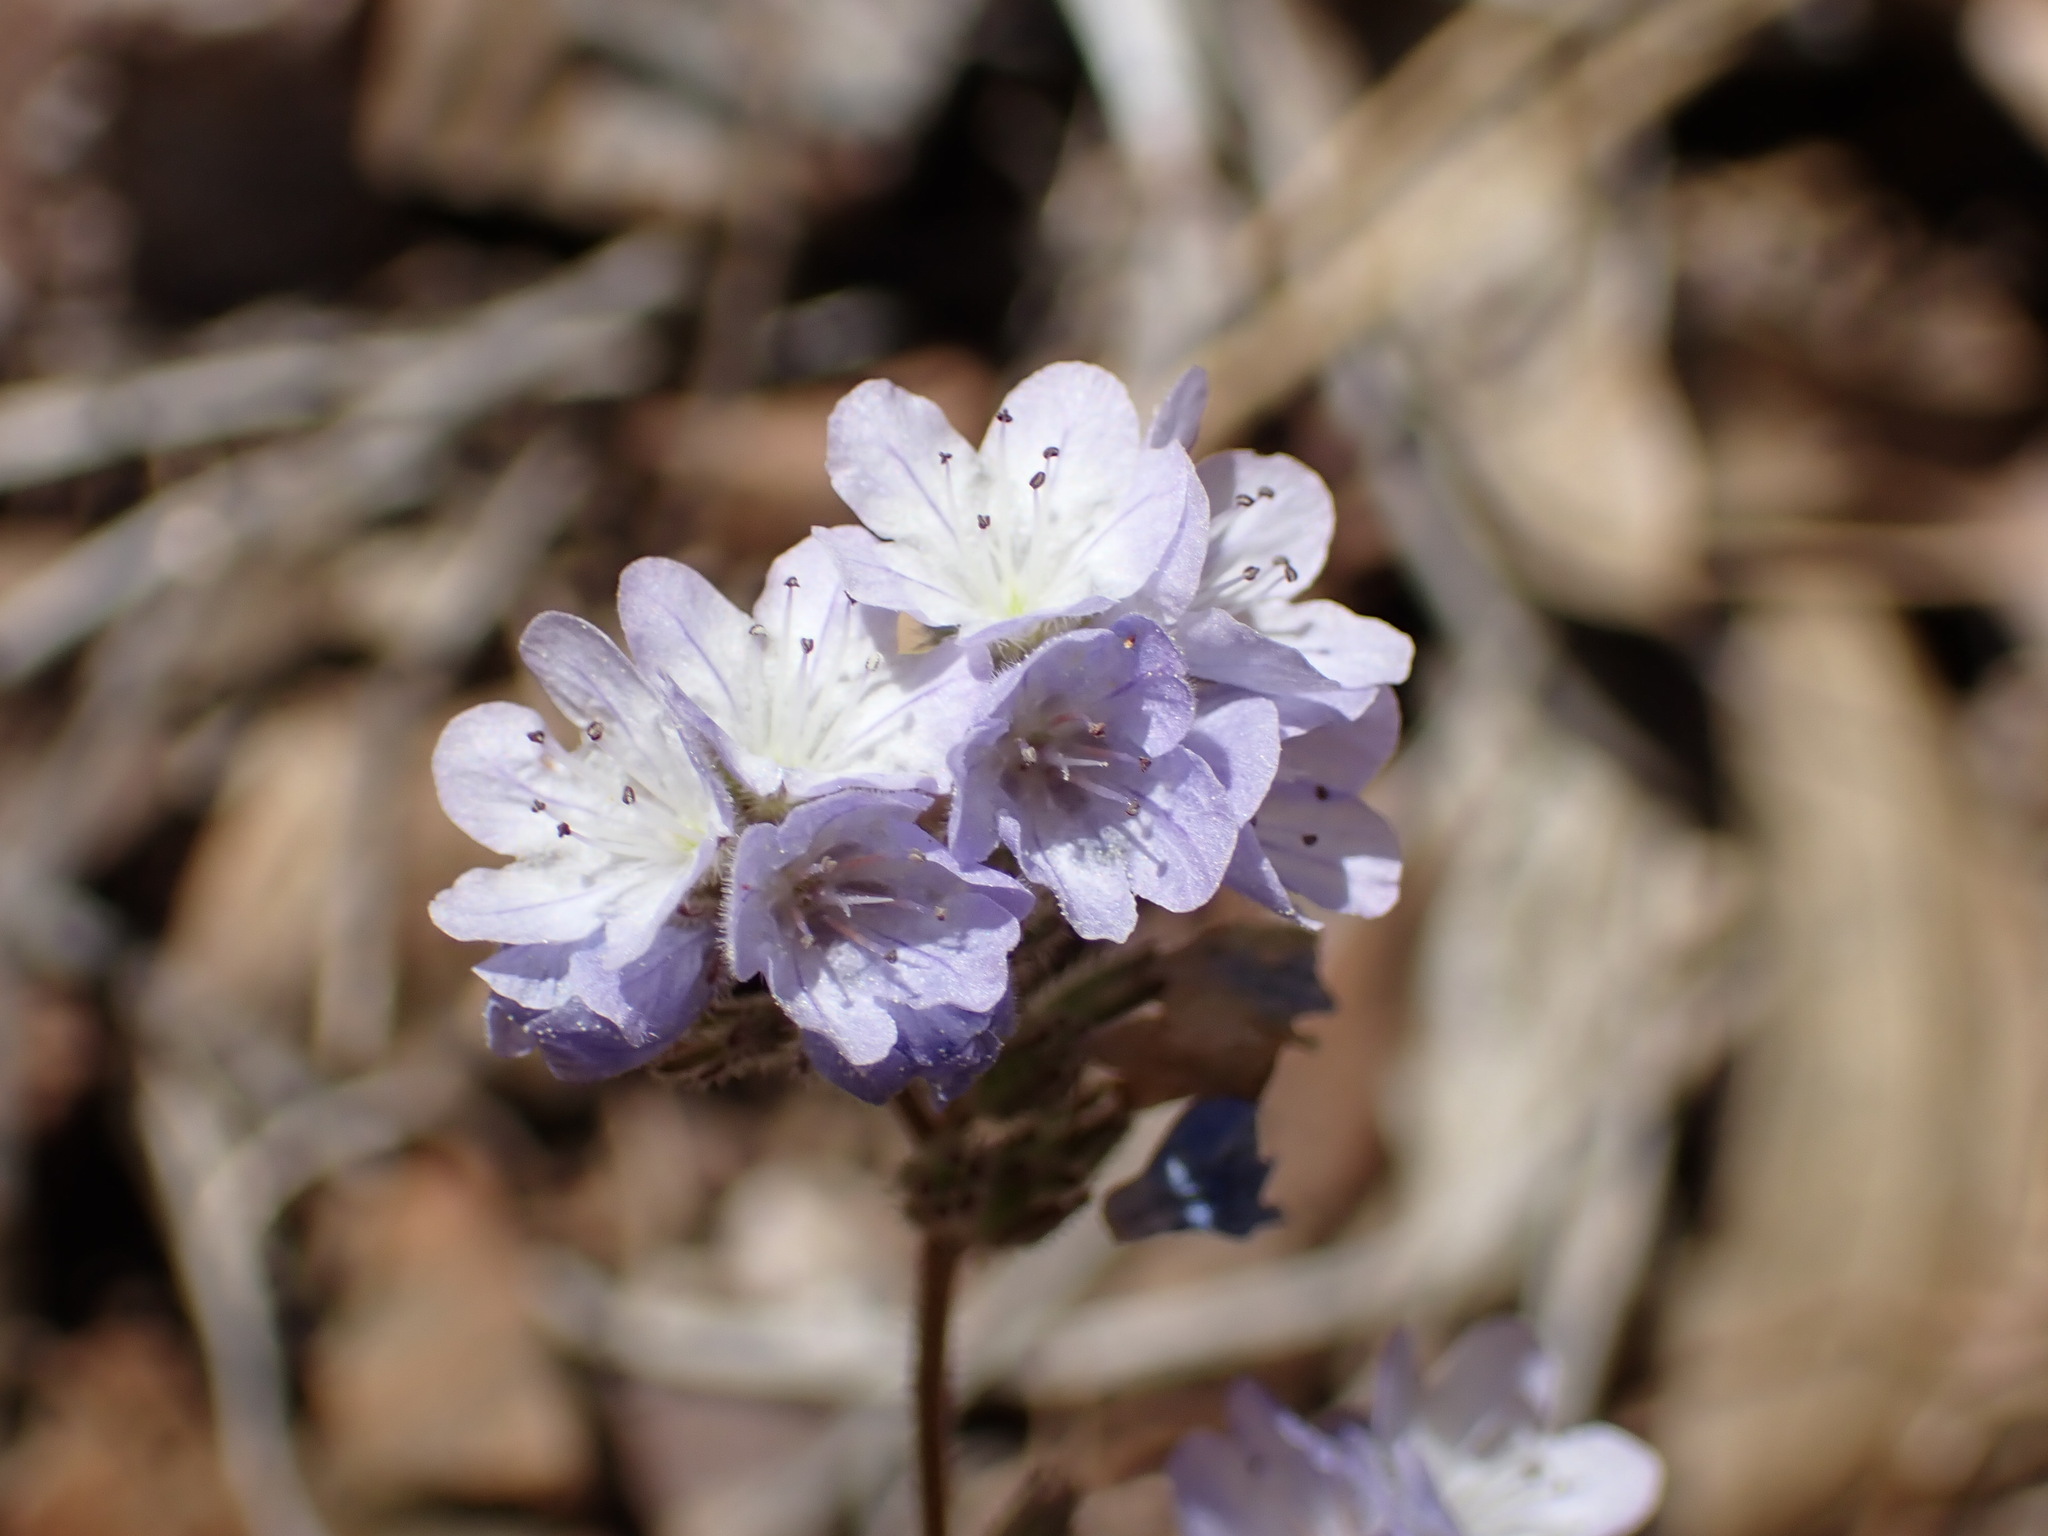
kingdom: Plantae
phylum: Tracheophyta
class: Magnoliopsida
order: Boraginales
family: Hydrophyllaceae
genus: Phacelia
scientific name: Phacelia breweri
